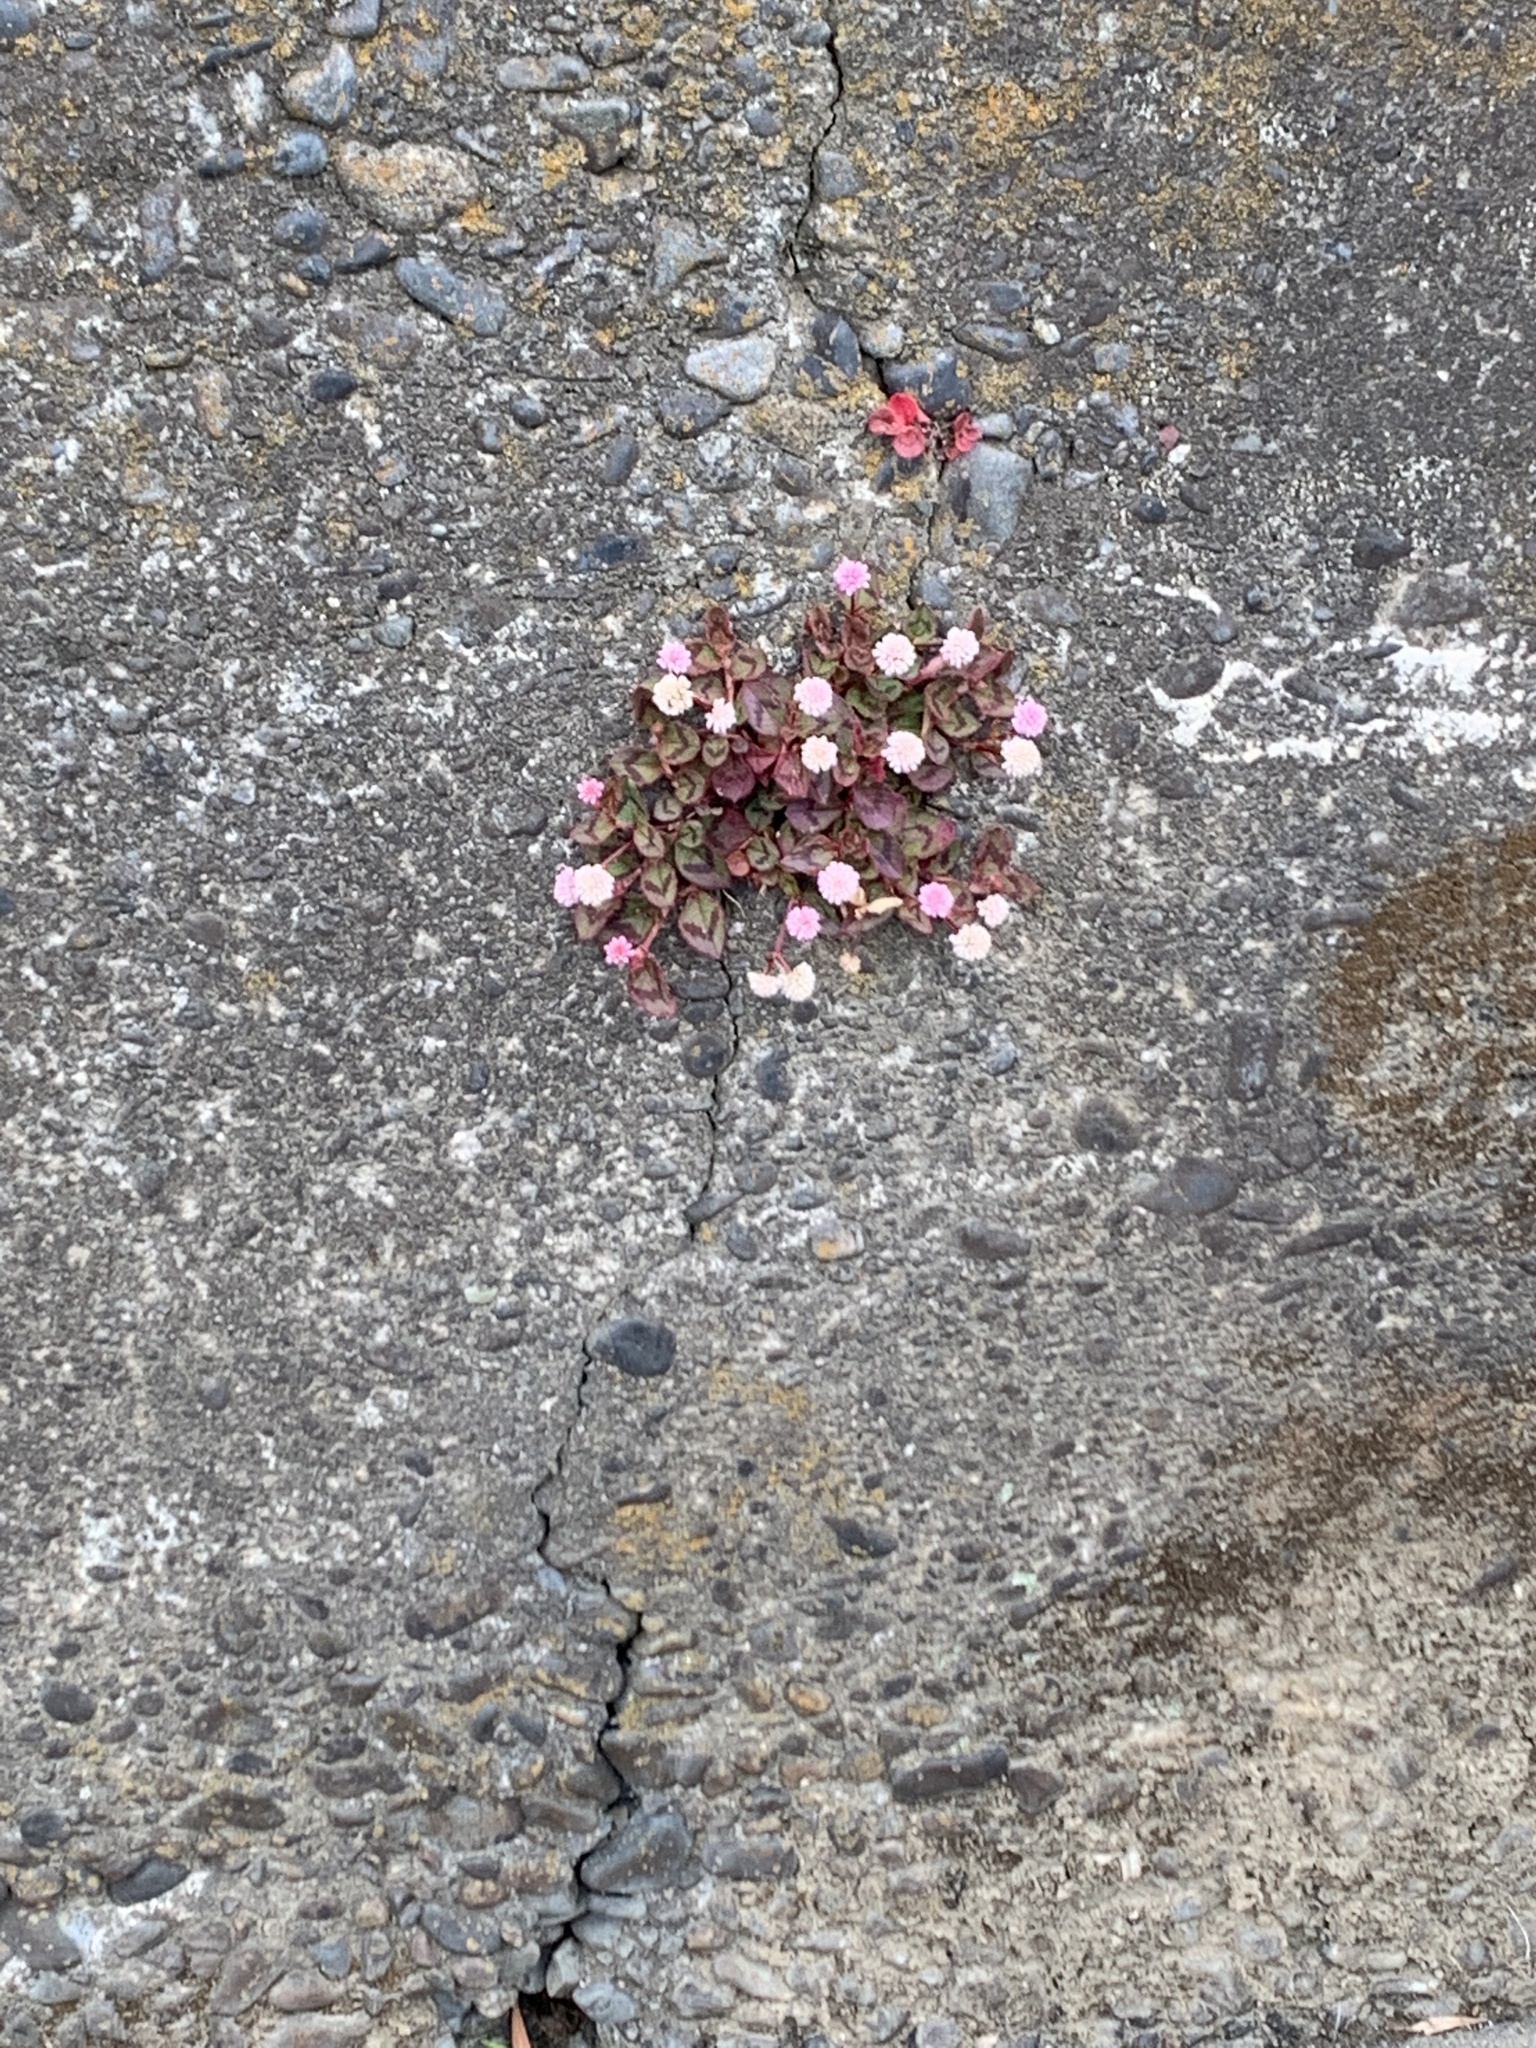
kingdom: Plantae
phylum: Tracheophyta
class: Magnoliopsida
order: Caryophyllales
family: Polygonaceae
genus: Persicaria
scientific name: Persicaria capitata
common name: Pinkhead smartweed
